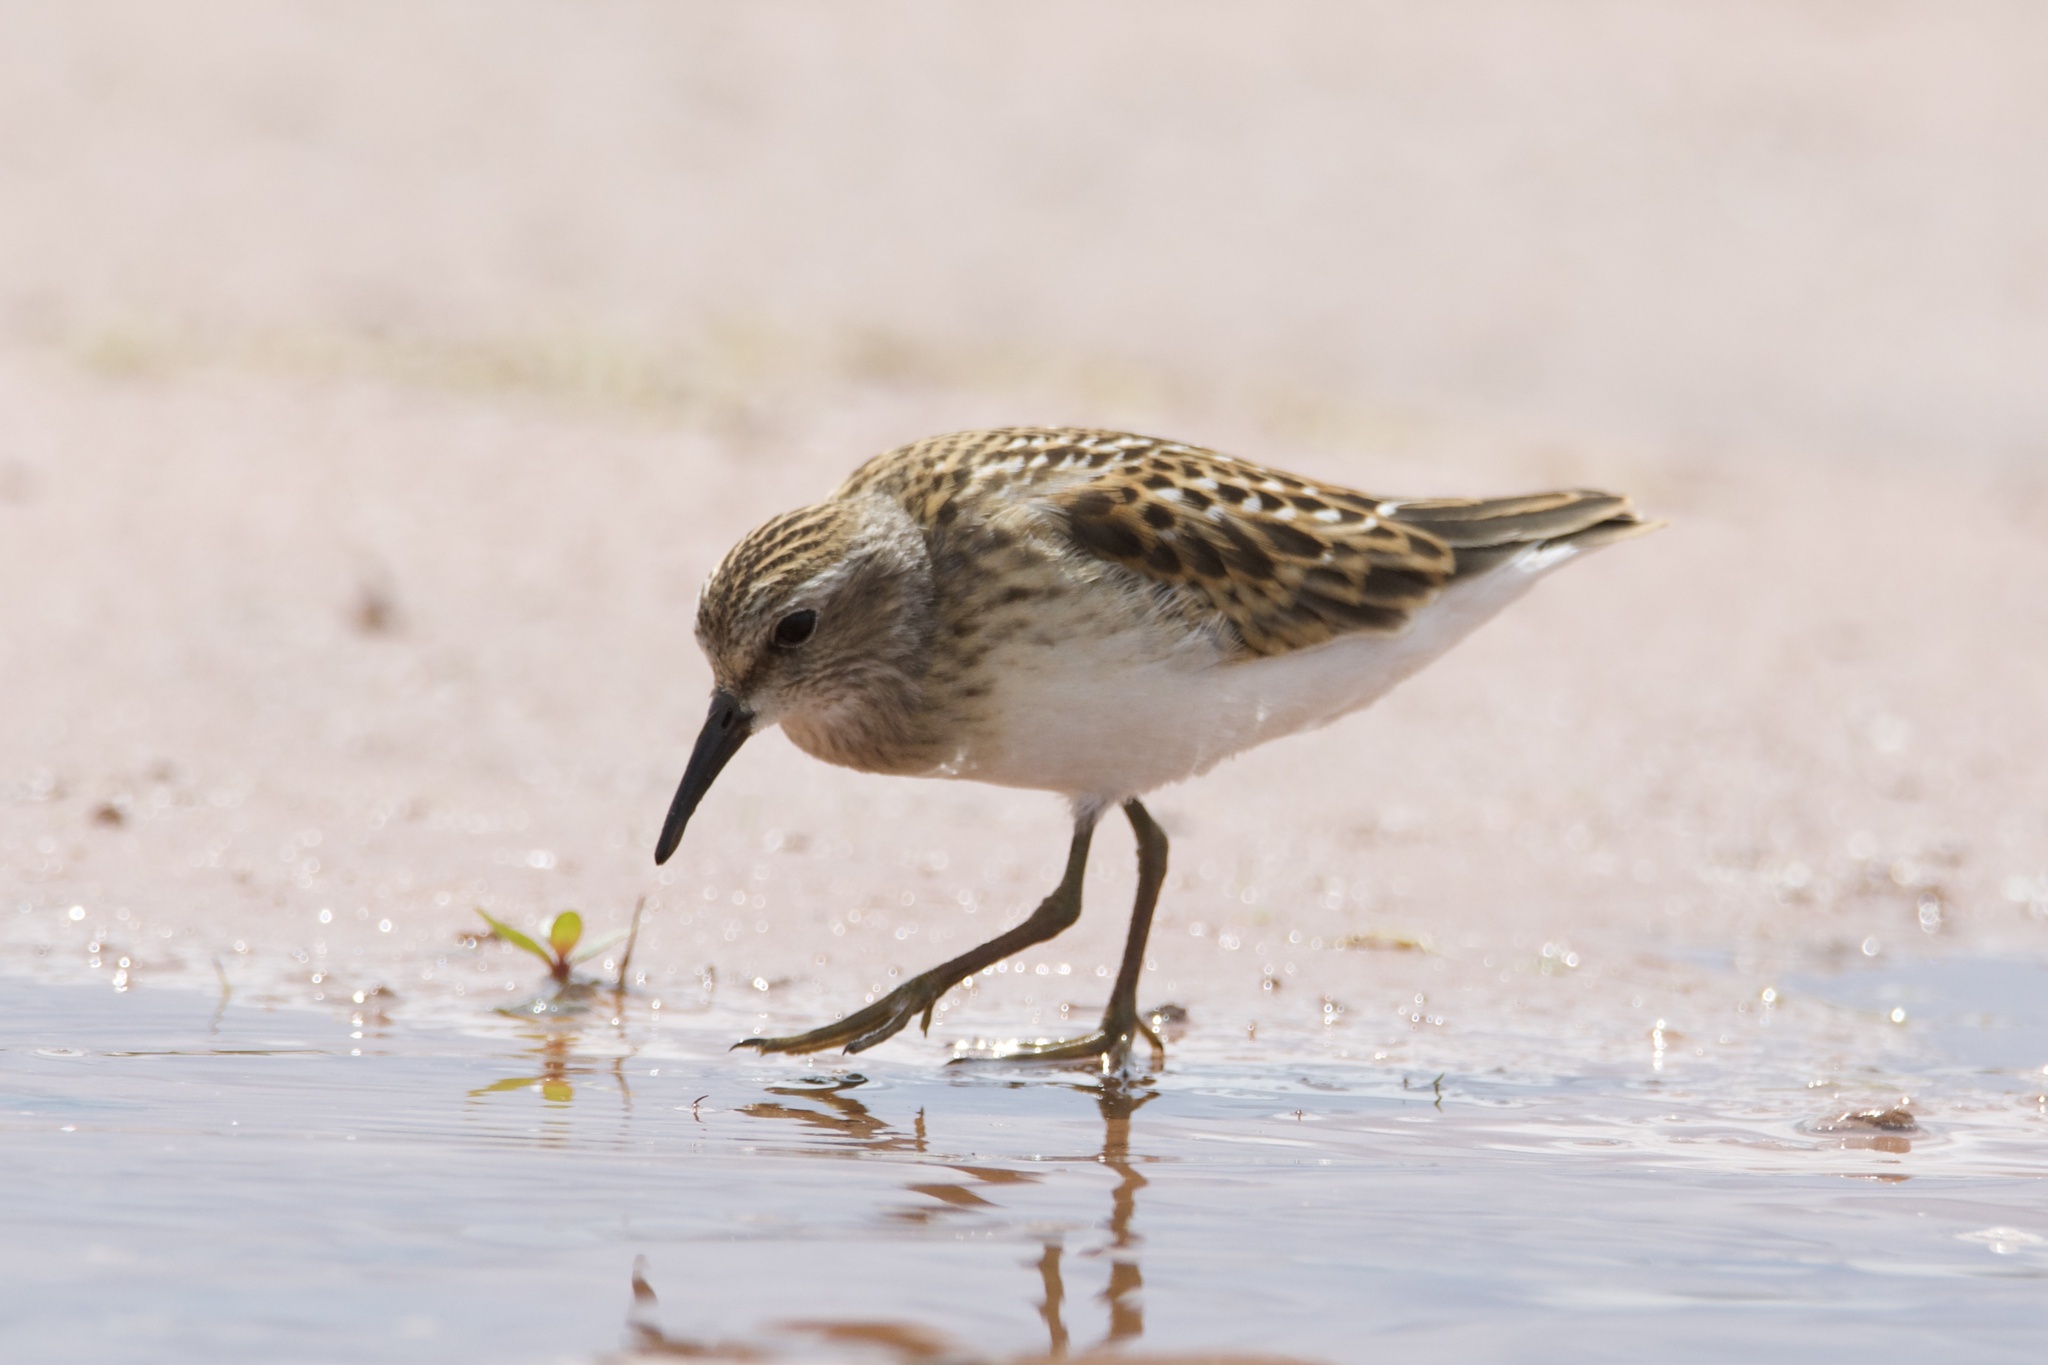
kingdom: Animalia
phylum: Chordata
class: Aves
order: Charadriiformes
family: Scolopacidae
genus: Calidris
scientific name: Calidris minutilla
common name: Least sandpiper
